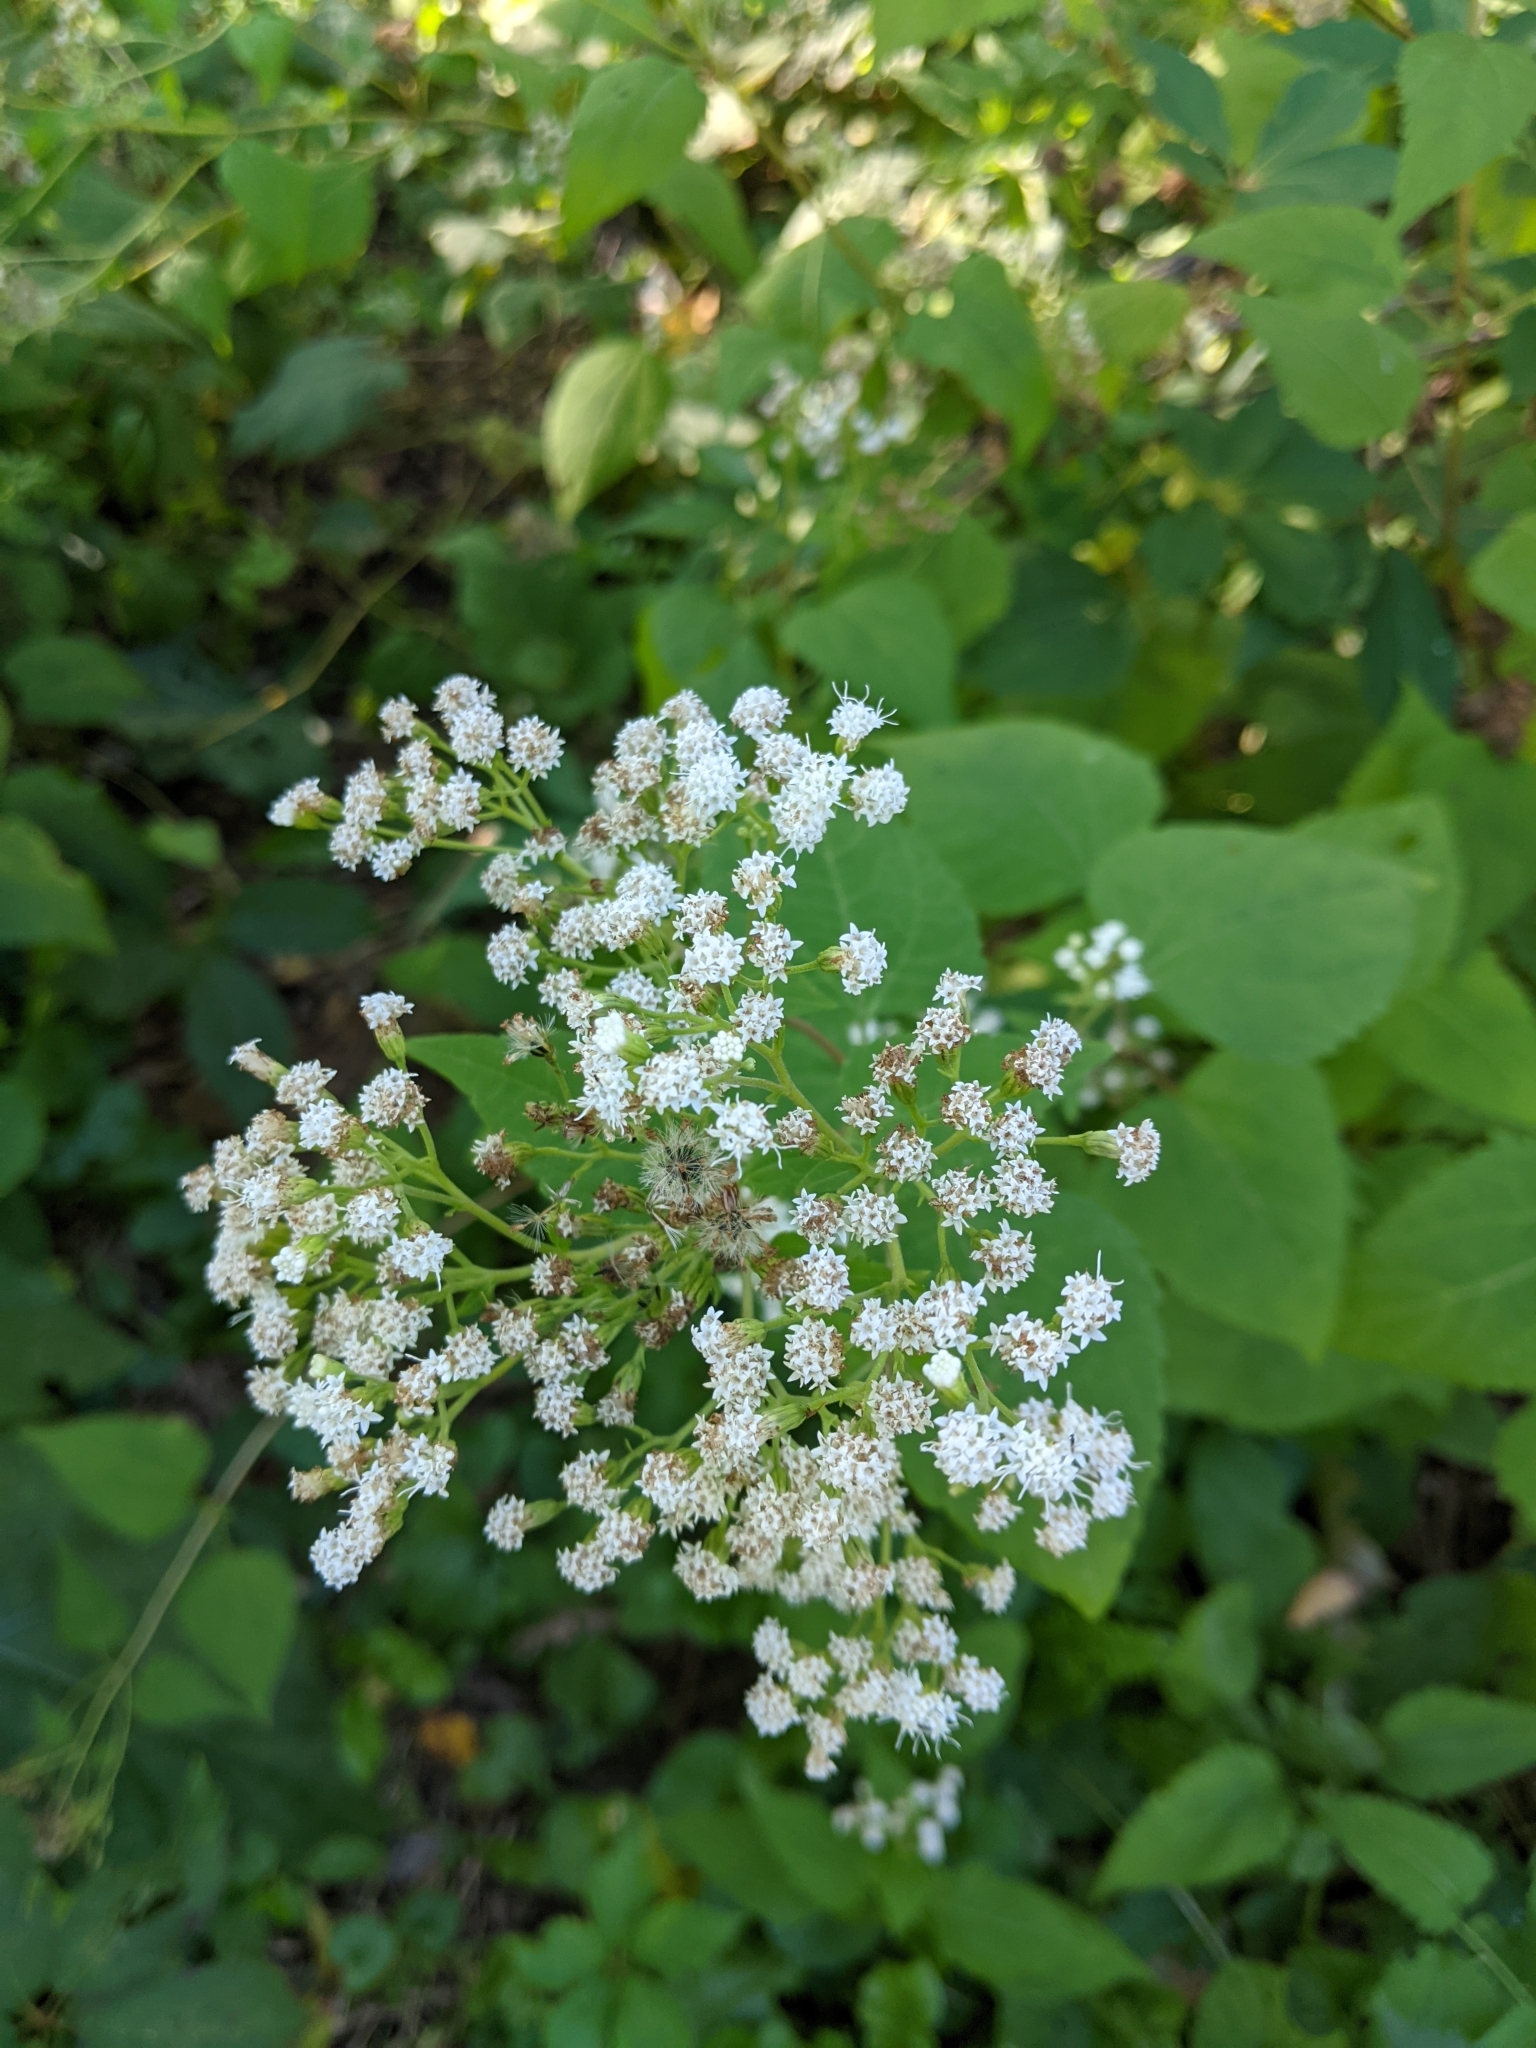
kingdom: Plantae
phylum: Tracheophyta
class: Magnoliopsida
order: Asterales
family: Asteraceae
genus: Ageratina
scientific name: Ageratina altissima
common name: White snakeroot
